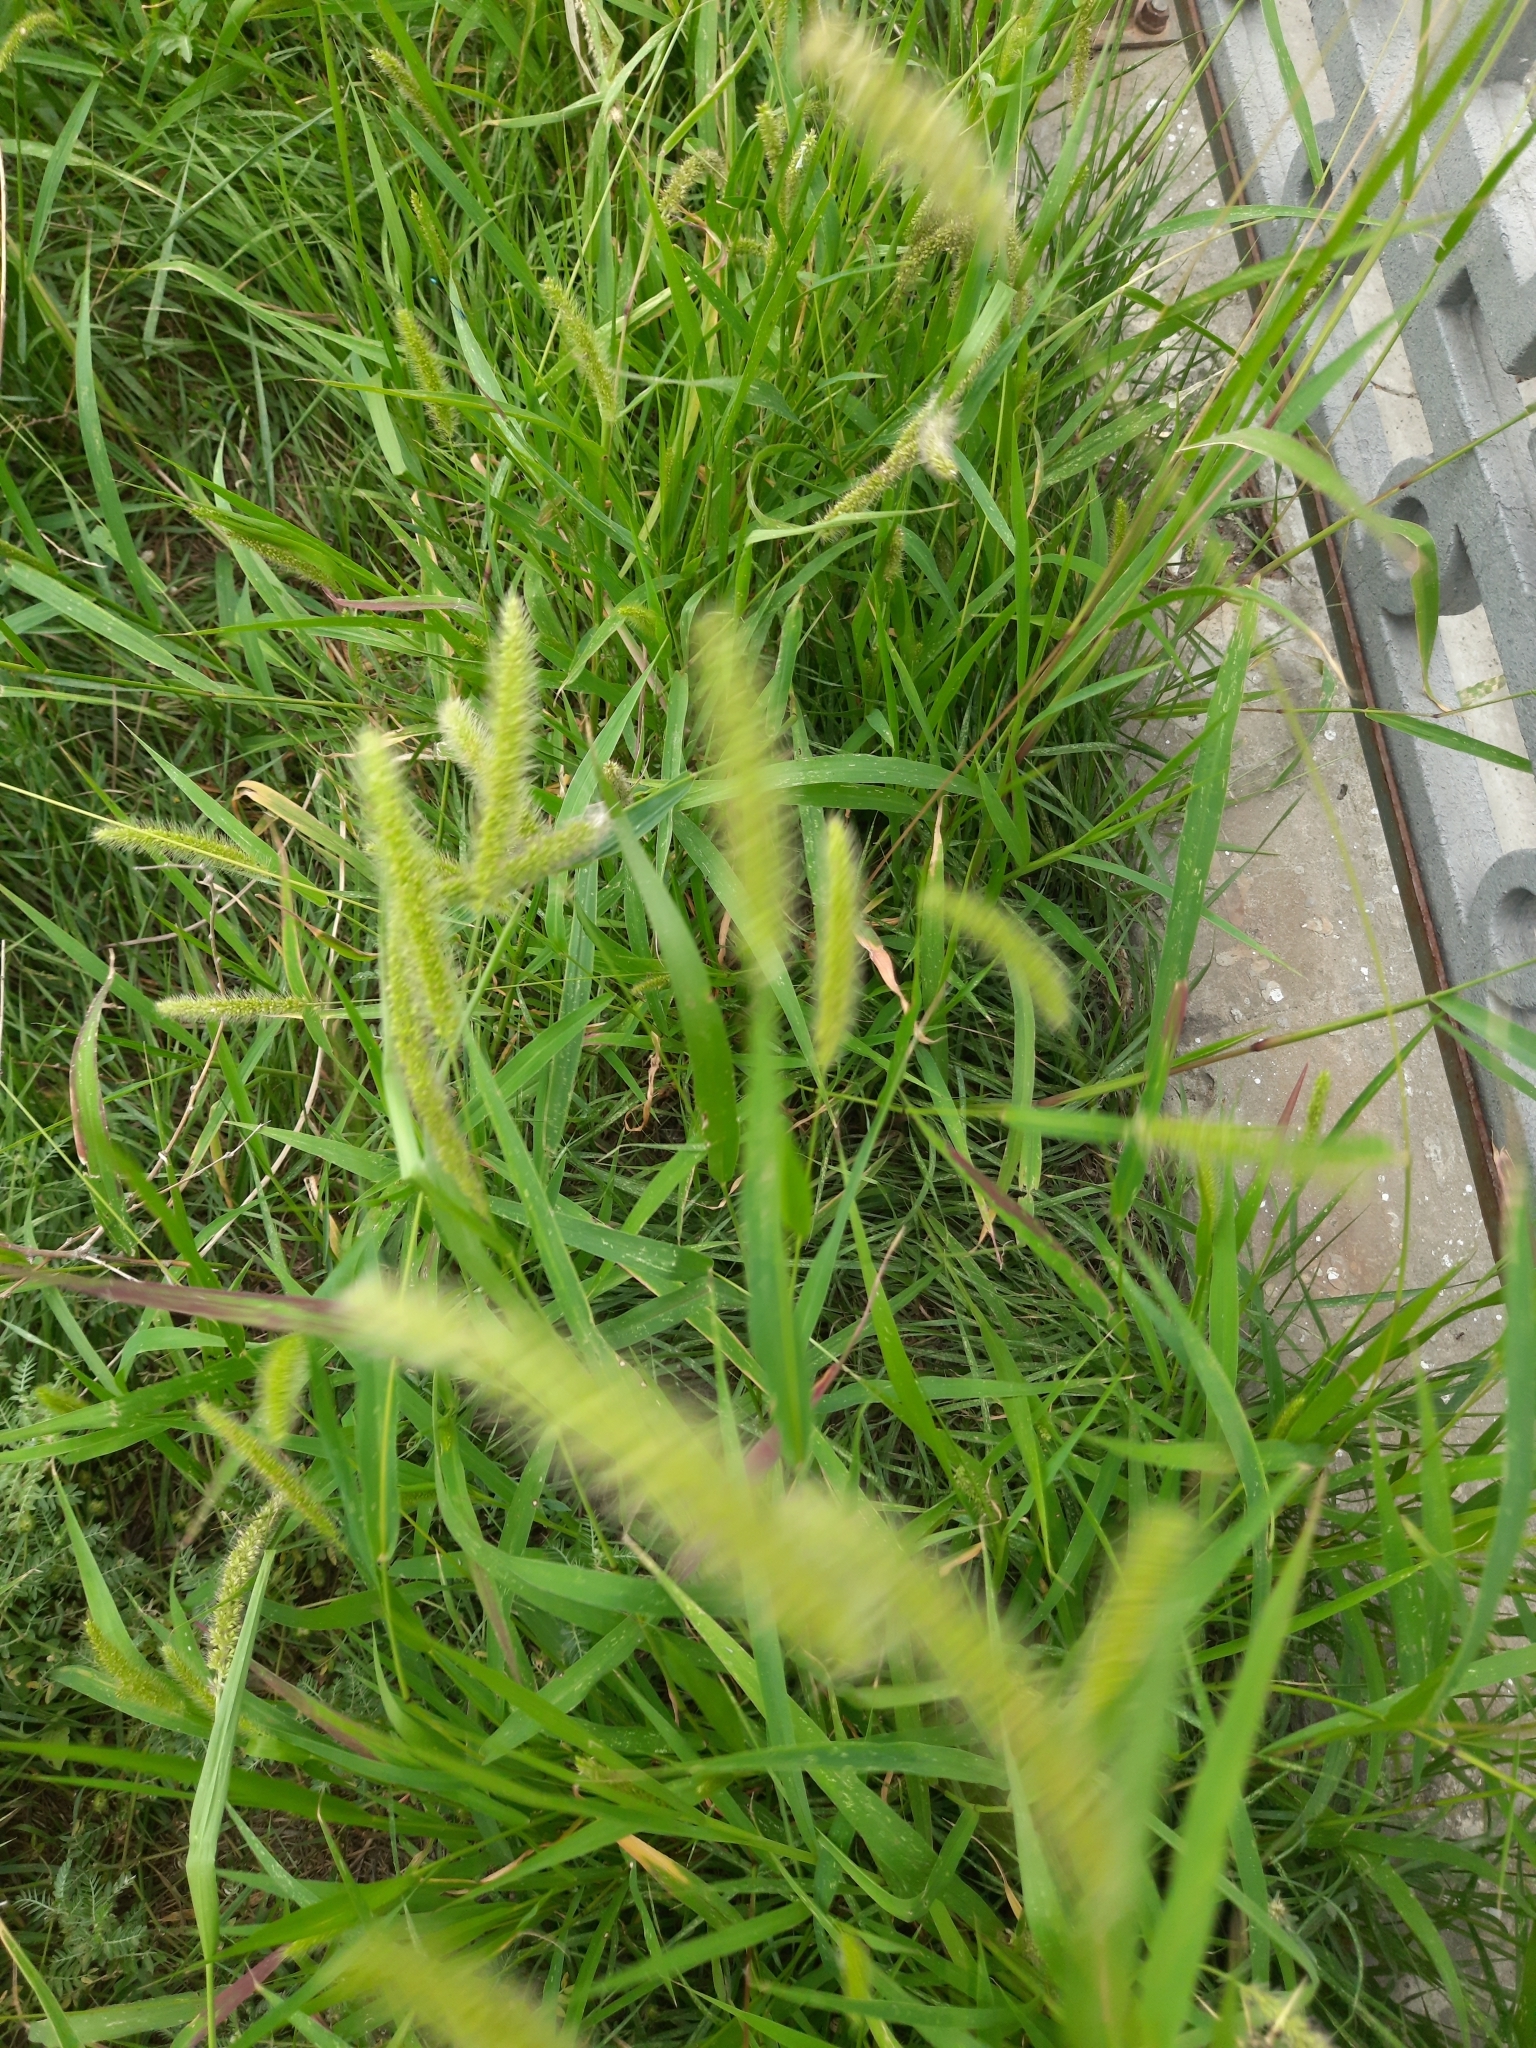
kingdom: Plantae
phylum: Tracheophyta
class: Liliopsida
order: Poales
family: Poaceae
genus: Setaria
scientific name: Setaria viridis
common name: Green bristlegrass
